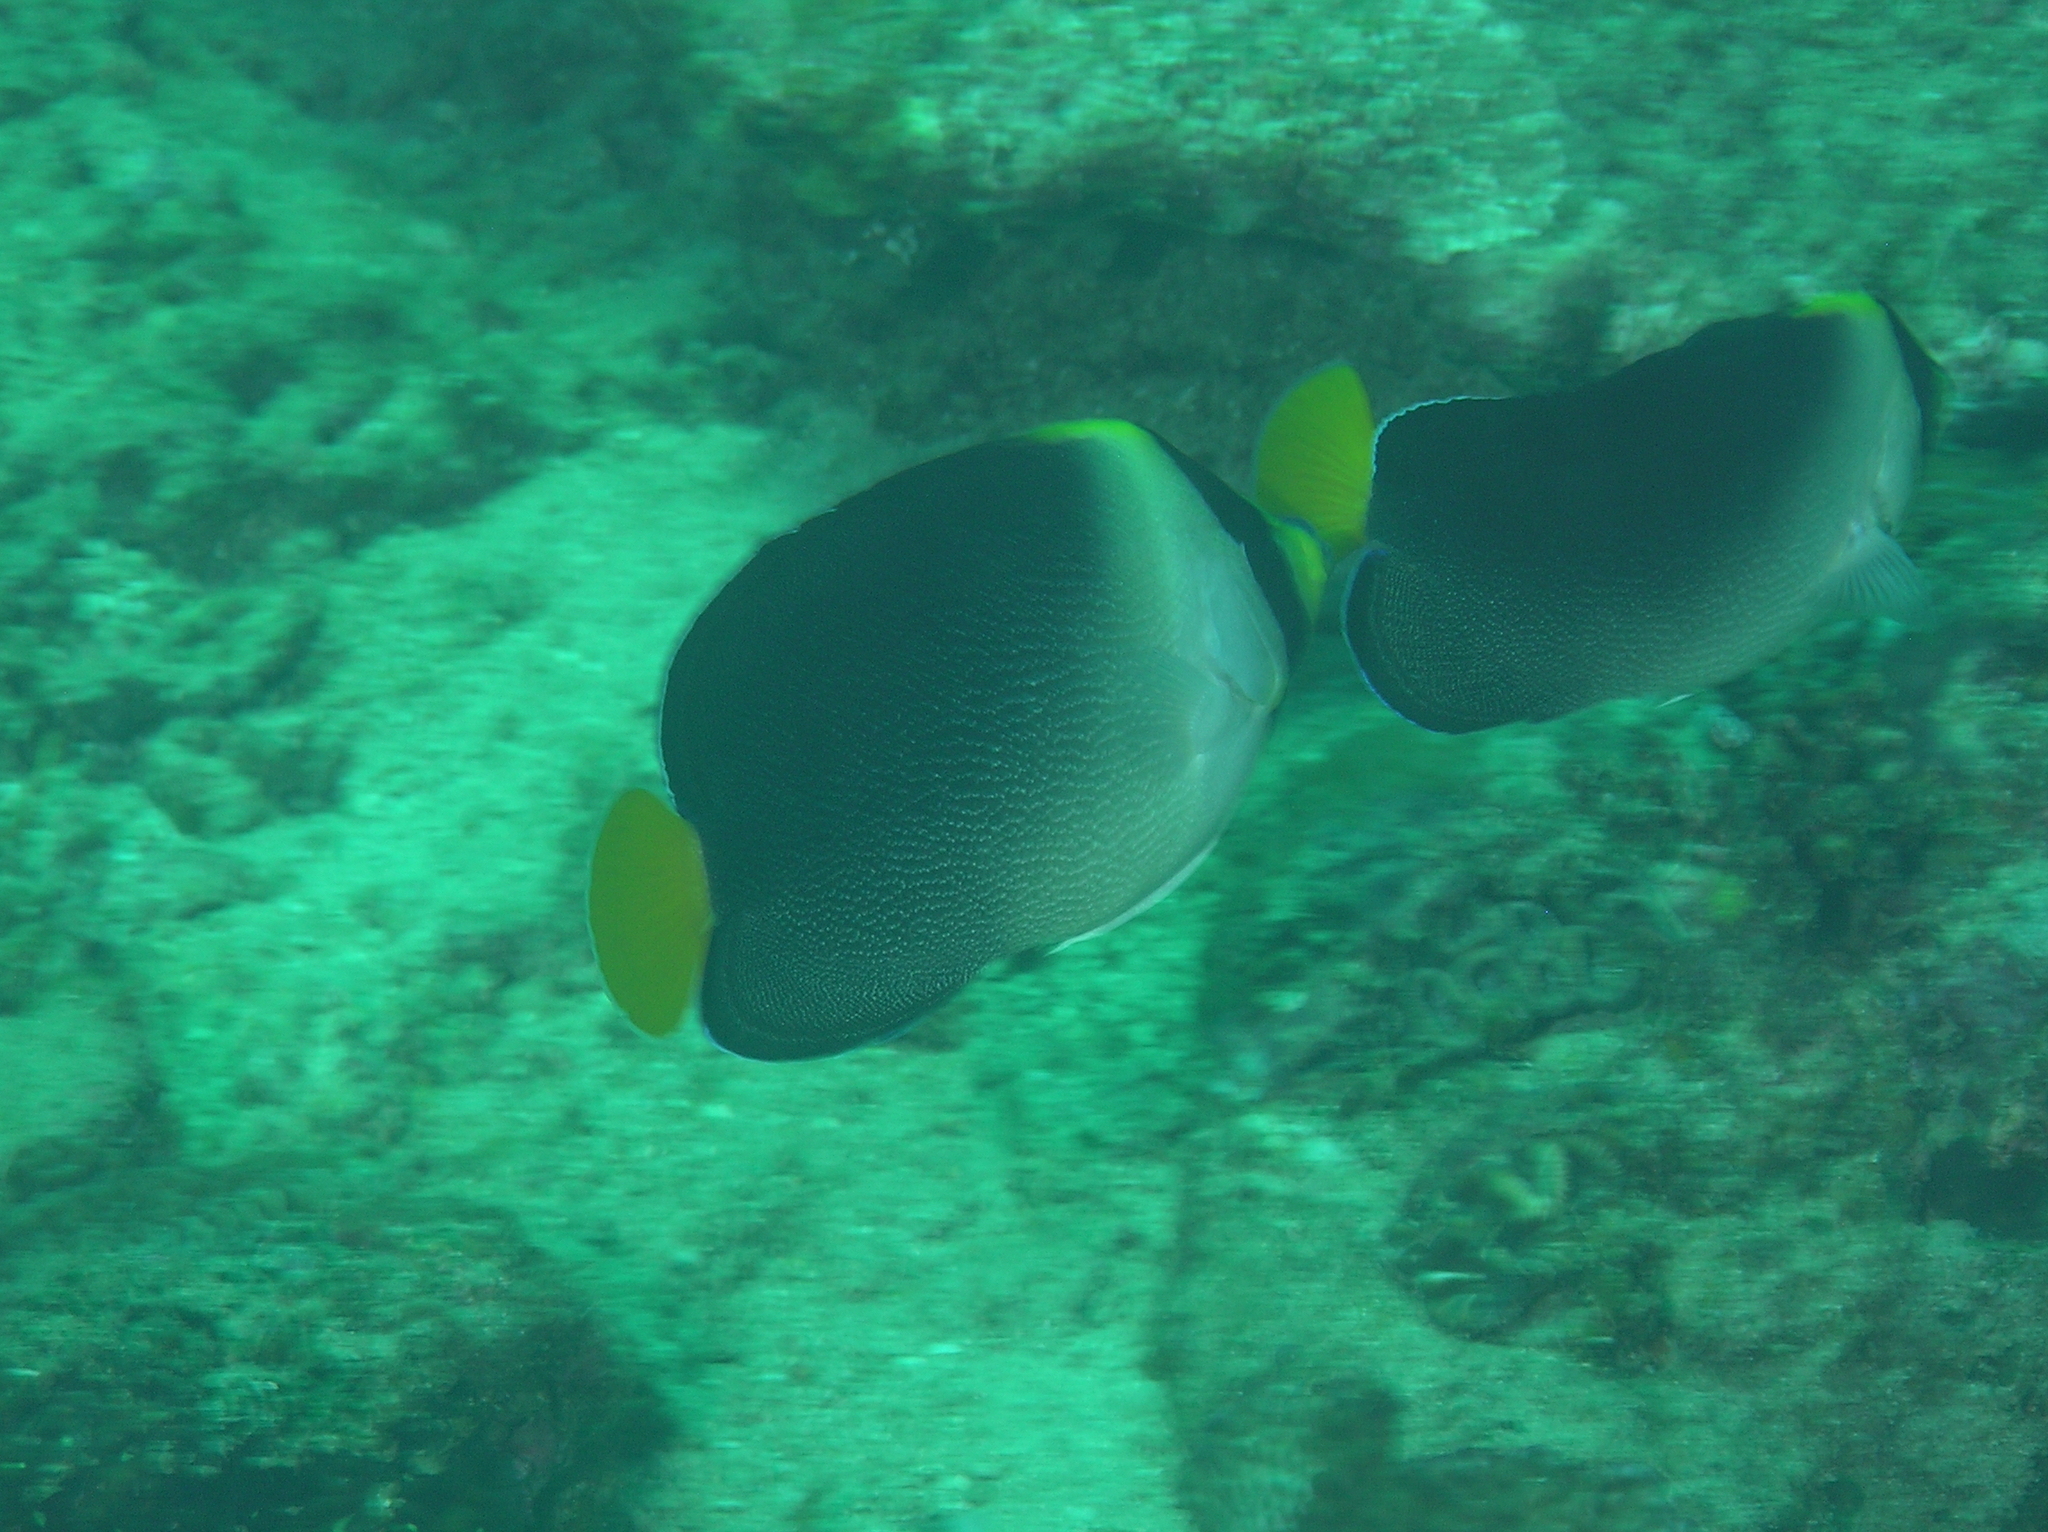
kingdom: Animalia
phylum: Chordata
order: Perciformes
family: Pomacanthidae
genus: Chaetodontoplus
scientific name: Chaetodontoplus mesoleucus
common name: Vermiculated angelfish
